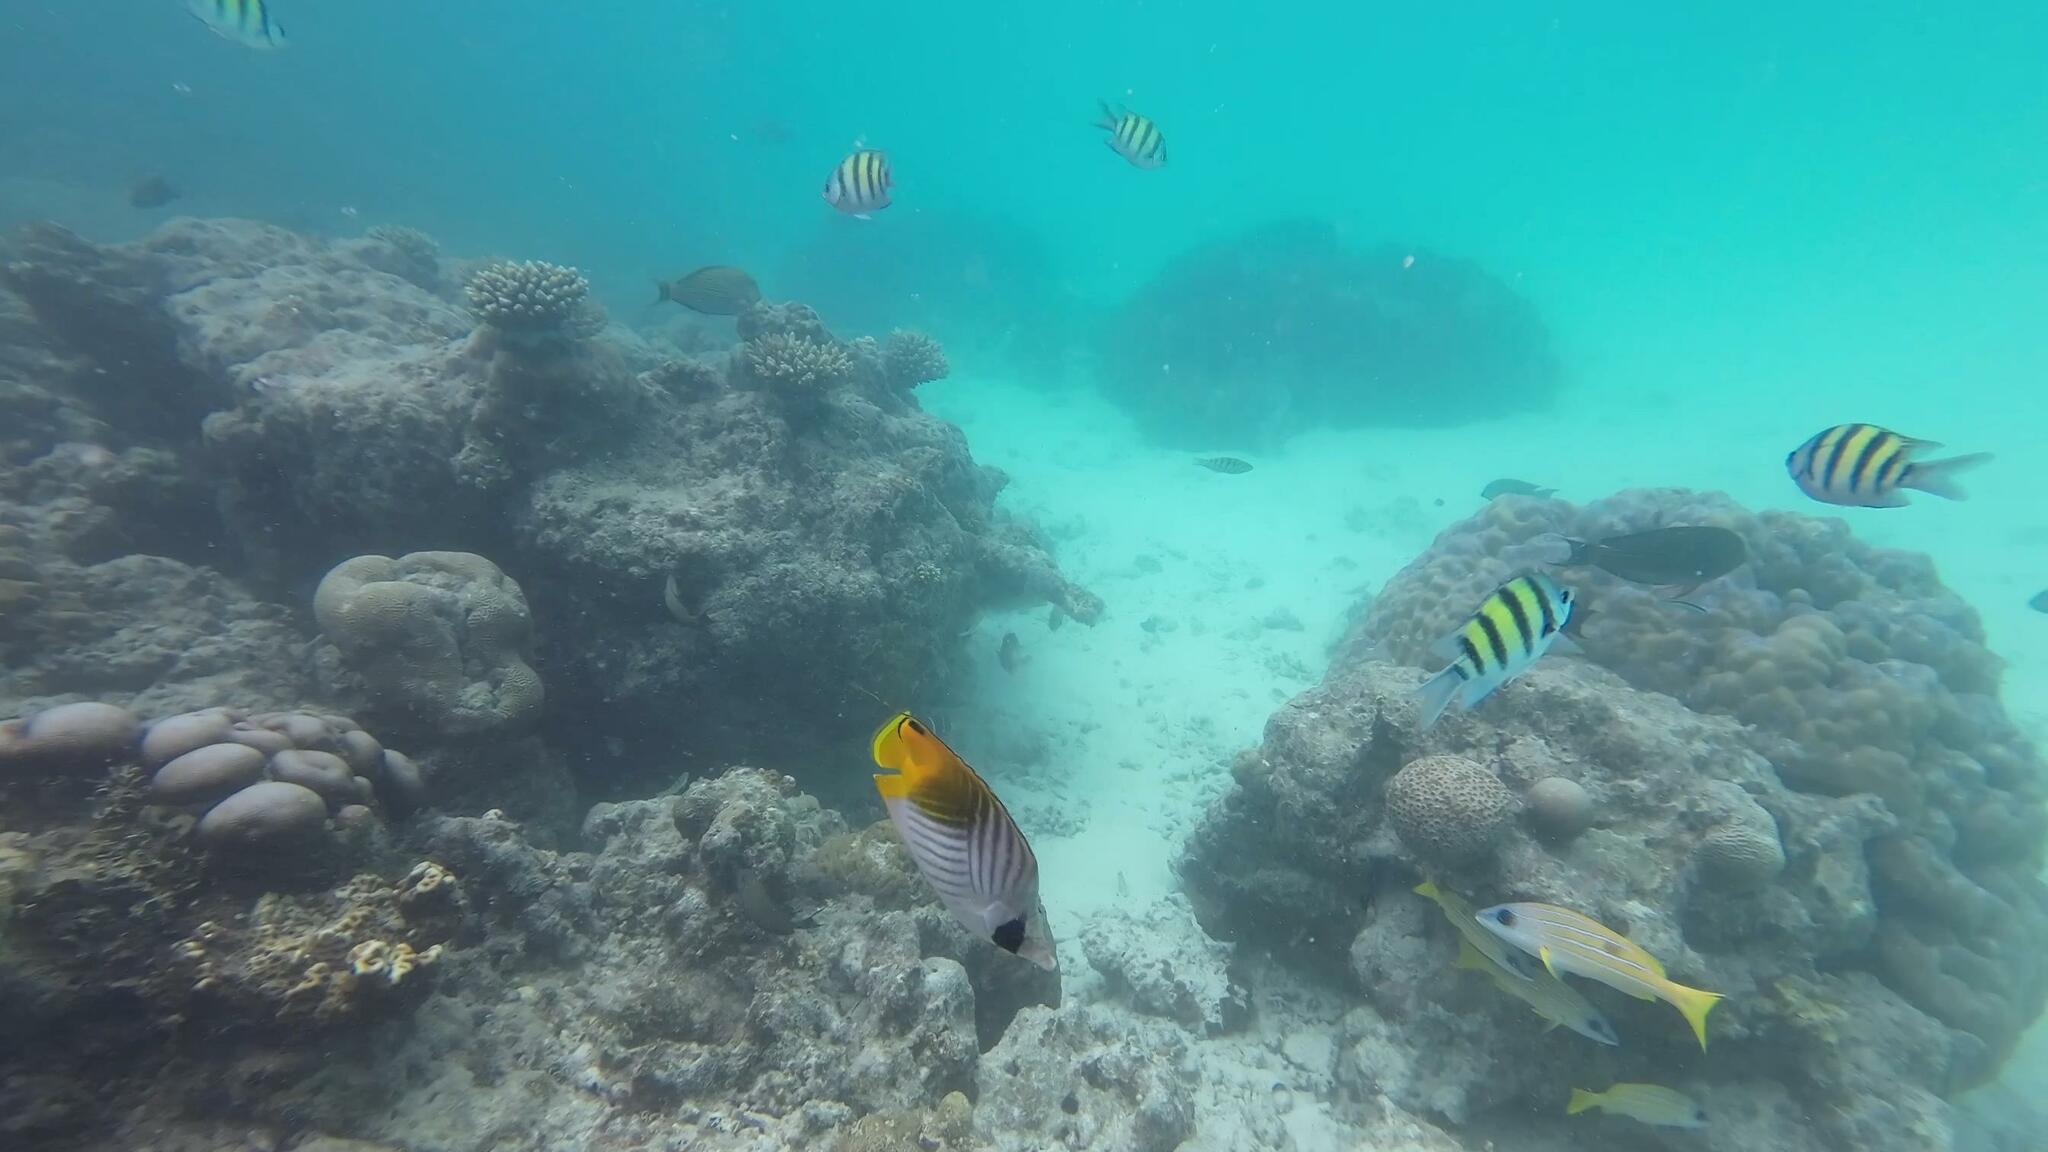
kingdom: Animalia
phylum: Chordata
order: Perciformes
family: Chaetodontidae
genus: Chaetodon
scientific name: Chaetodon auriga
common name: Threadfin butterflyfish
